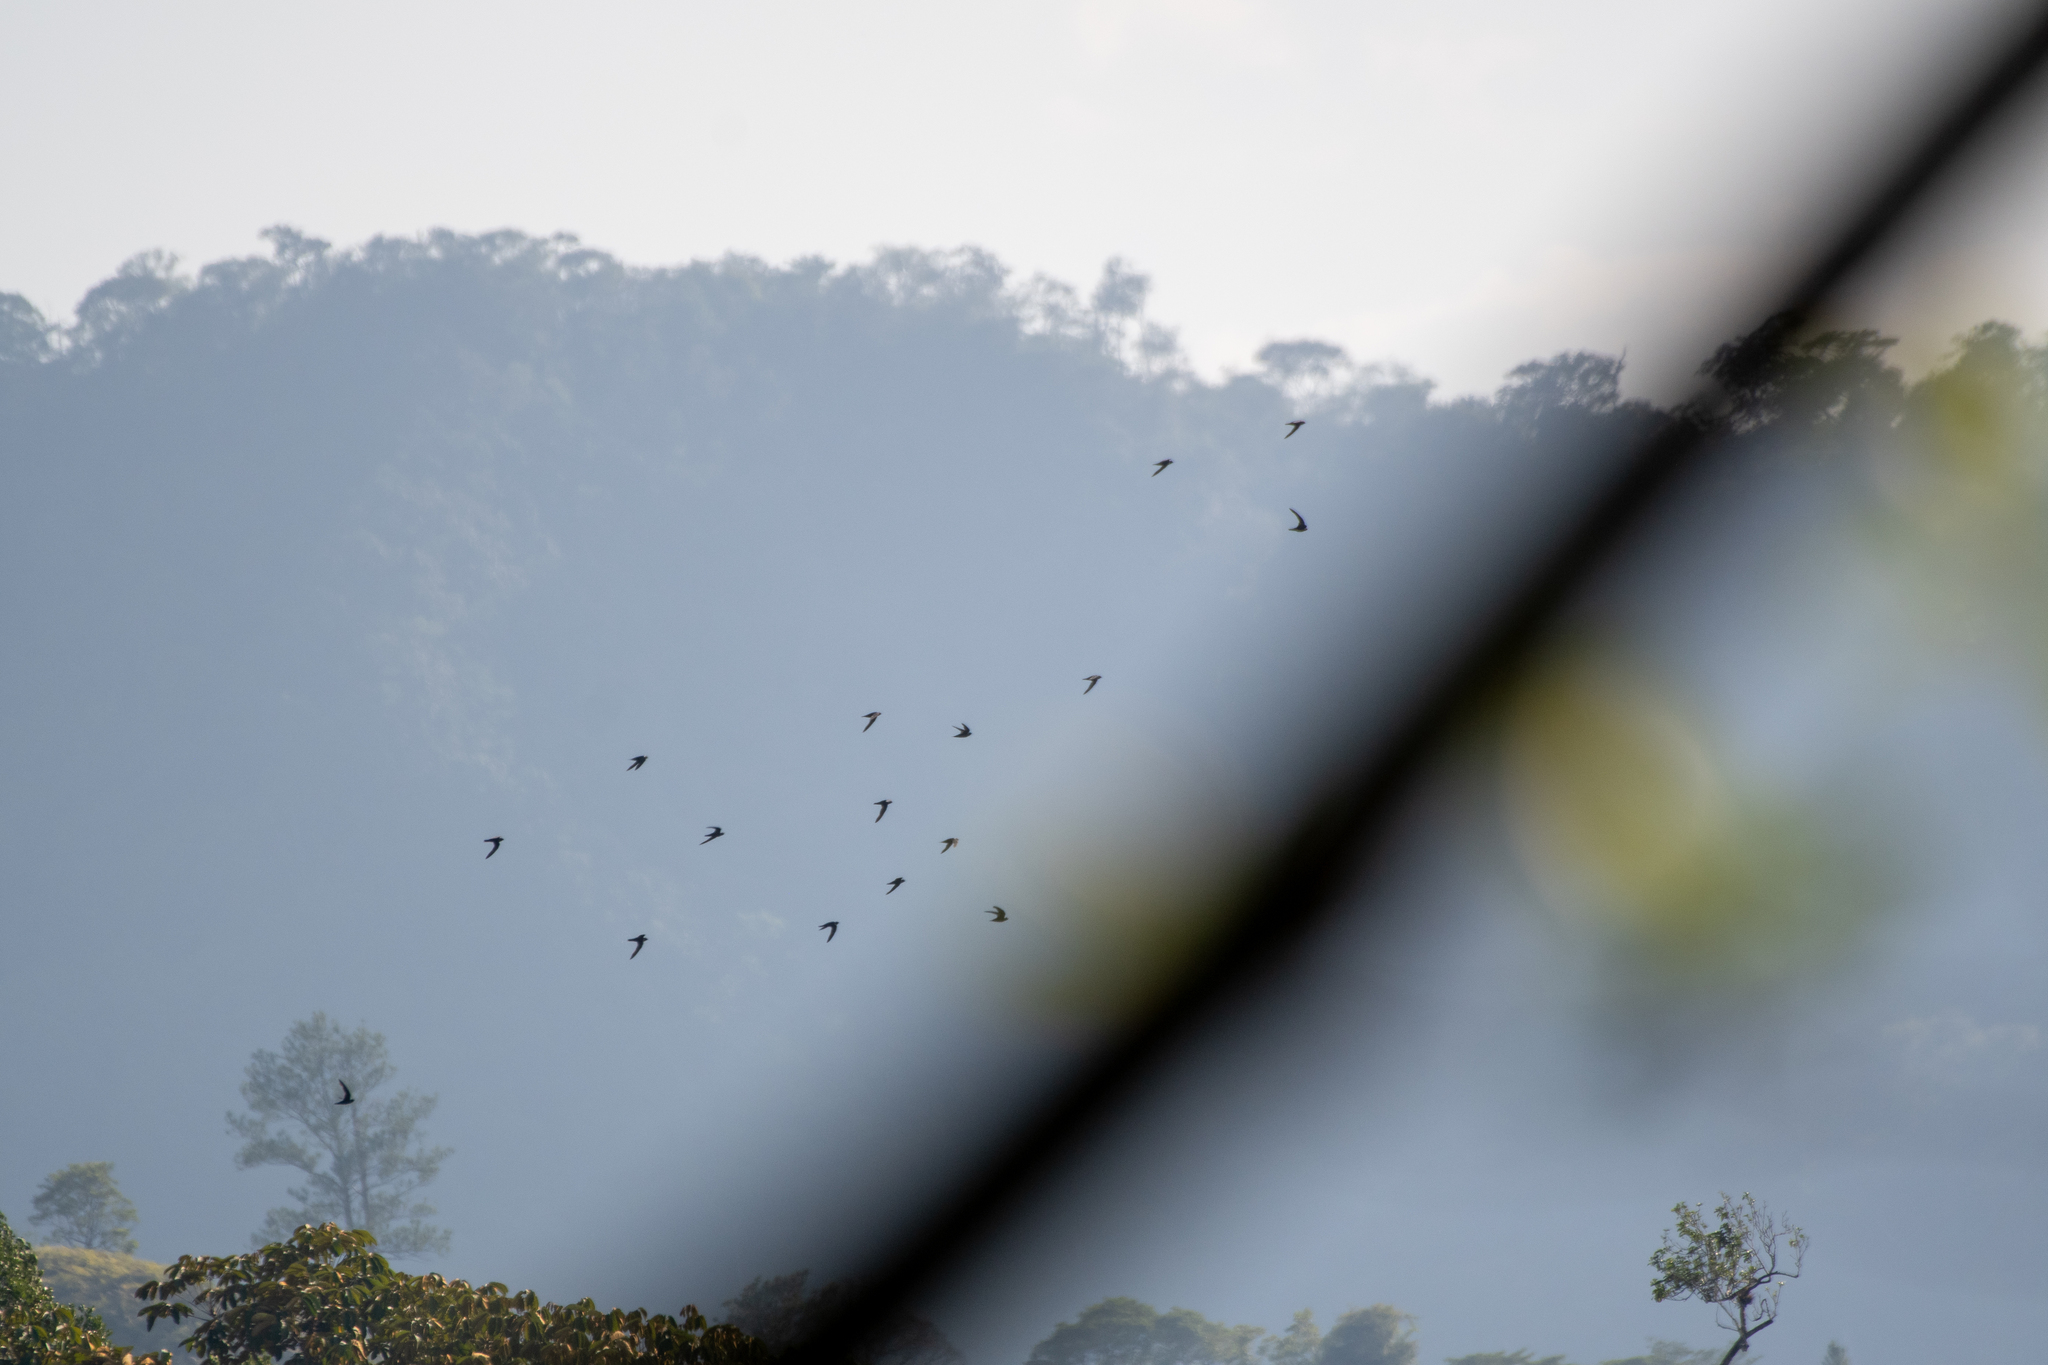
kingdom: Animalia
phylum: Chordata
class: Aves
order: Apodiformes
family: Apodidae
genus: Streptoprocne
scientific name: Streptoprocne zonaris
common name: White-collared swift
